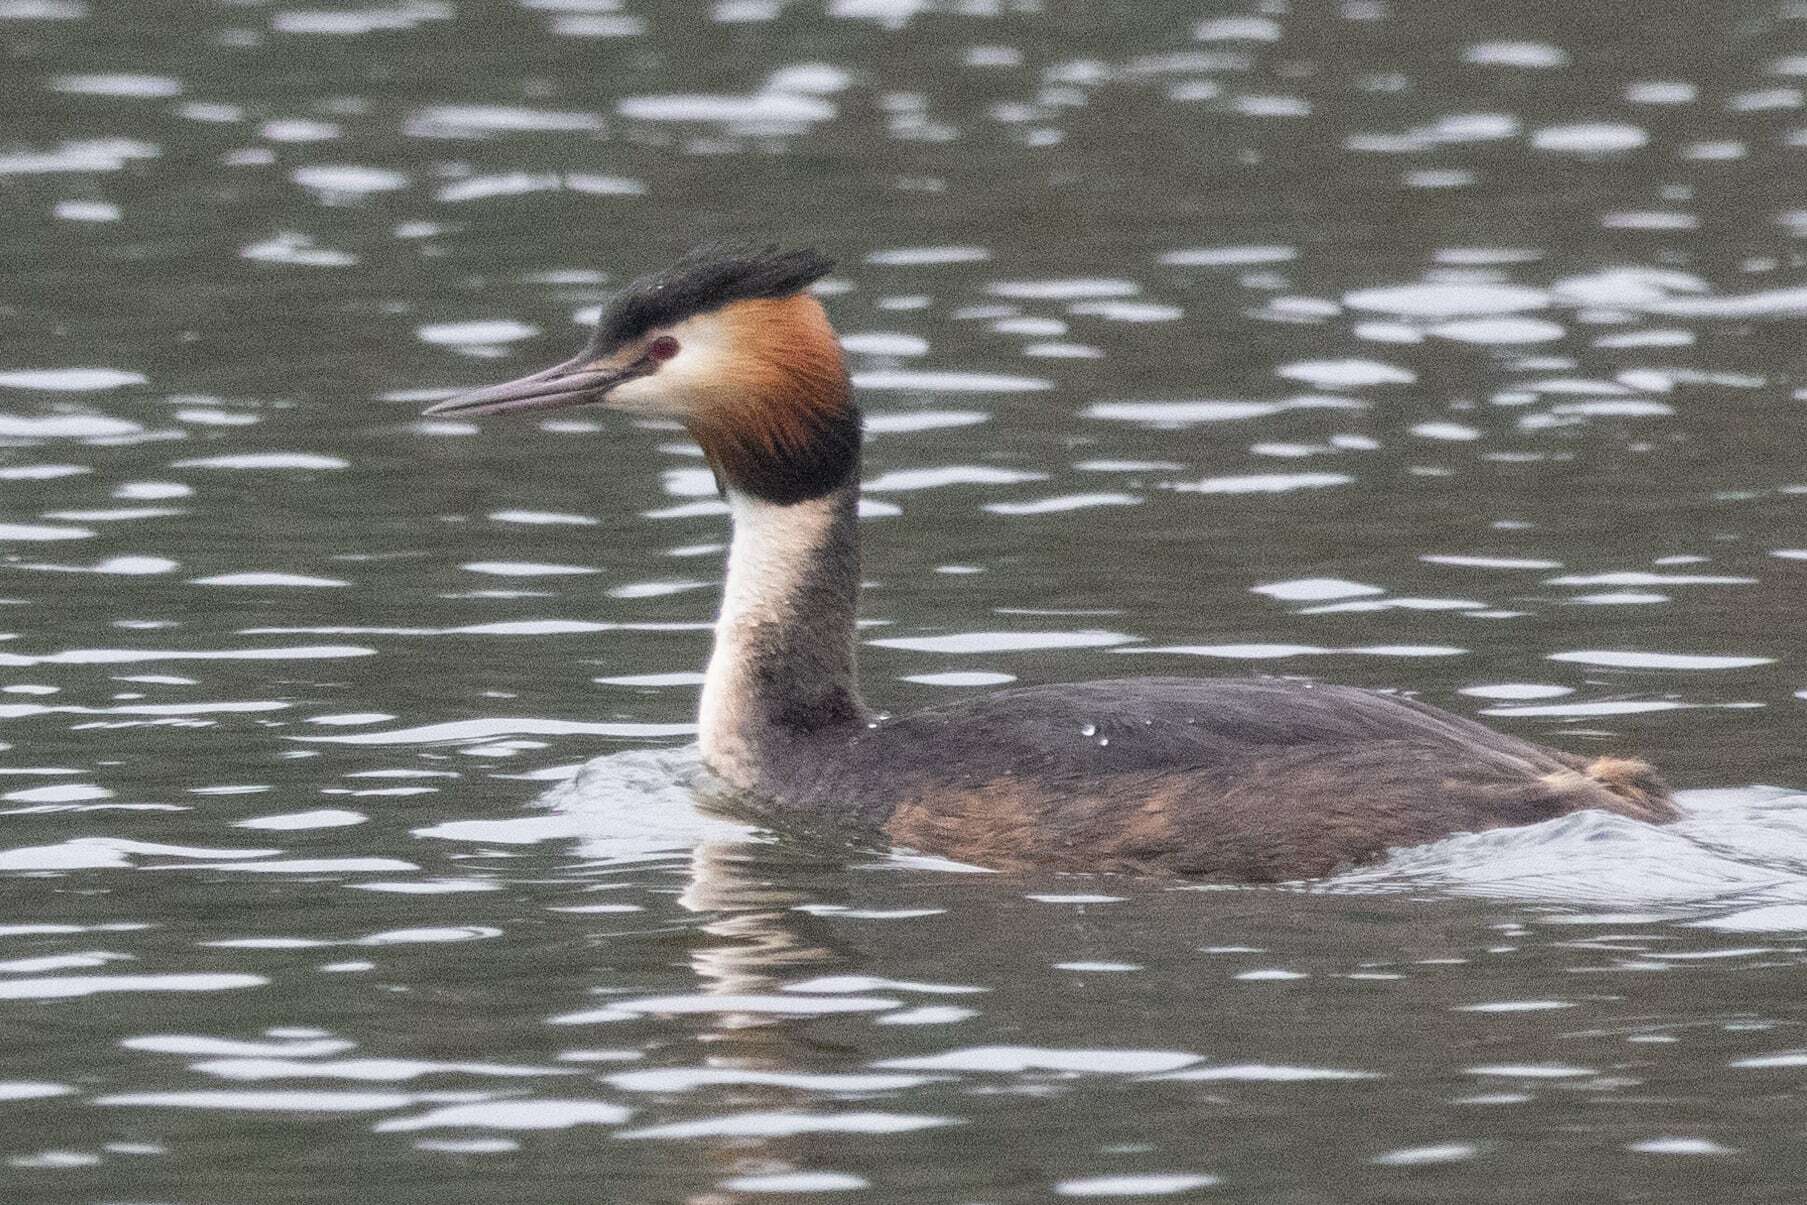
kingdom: Animalia
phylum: Chordata
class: Aves
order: Podicipediformes
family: Podicipedidae
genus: Podiceps
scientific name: Podiceps cristatus
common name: Great crested grebe
